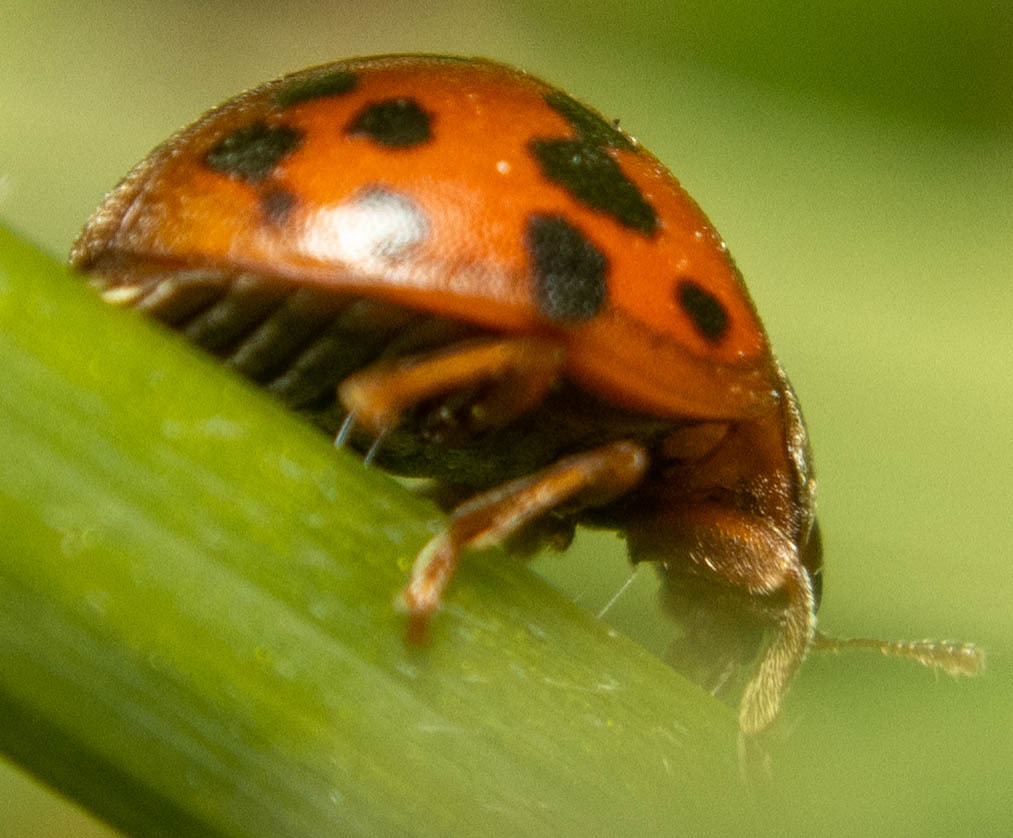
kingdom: Animalia
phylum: Arthropoda
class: Insecta
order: Coleoptera
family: Coccinellidae
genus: Subcoccinella
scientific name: Subcoccinella vigintiquatuorpunctata
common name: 24-spot ladybird
